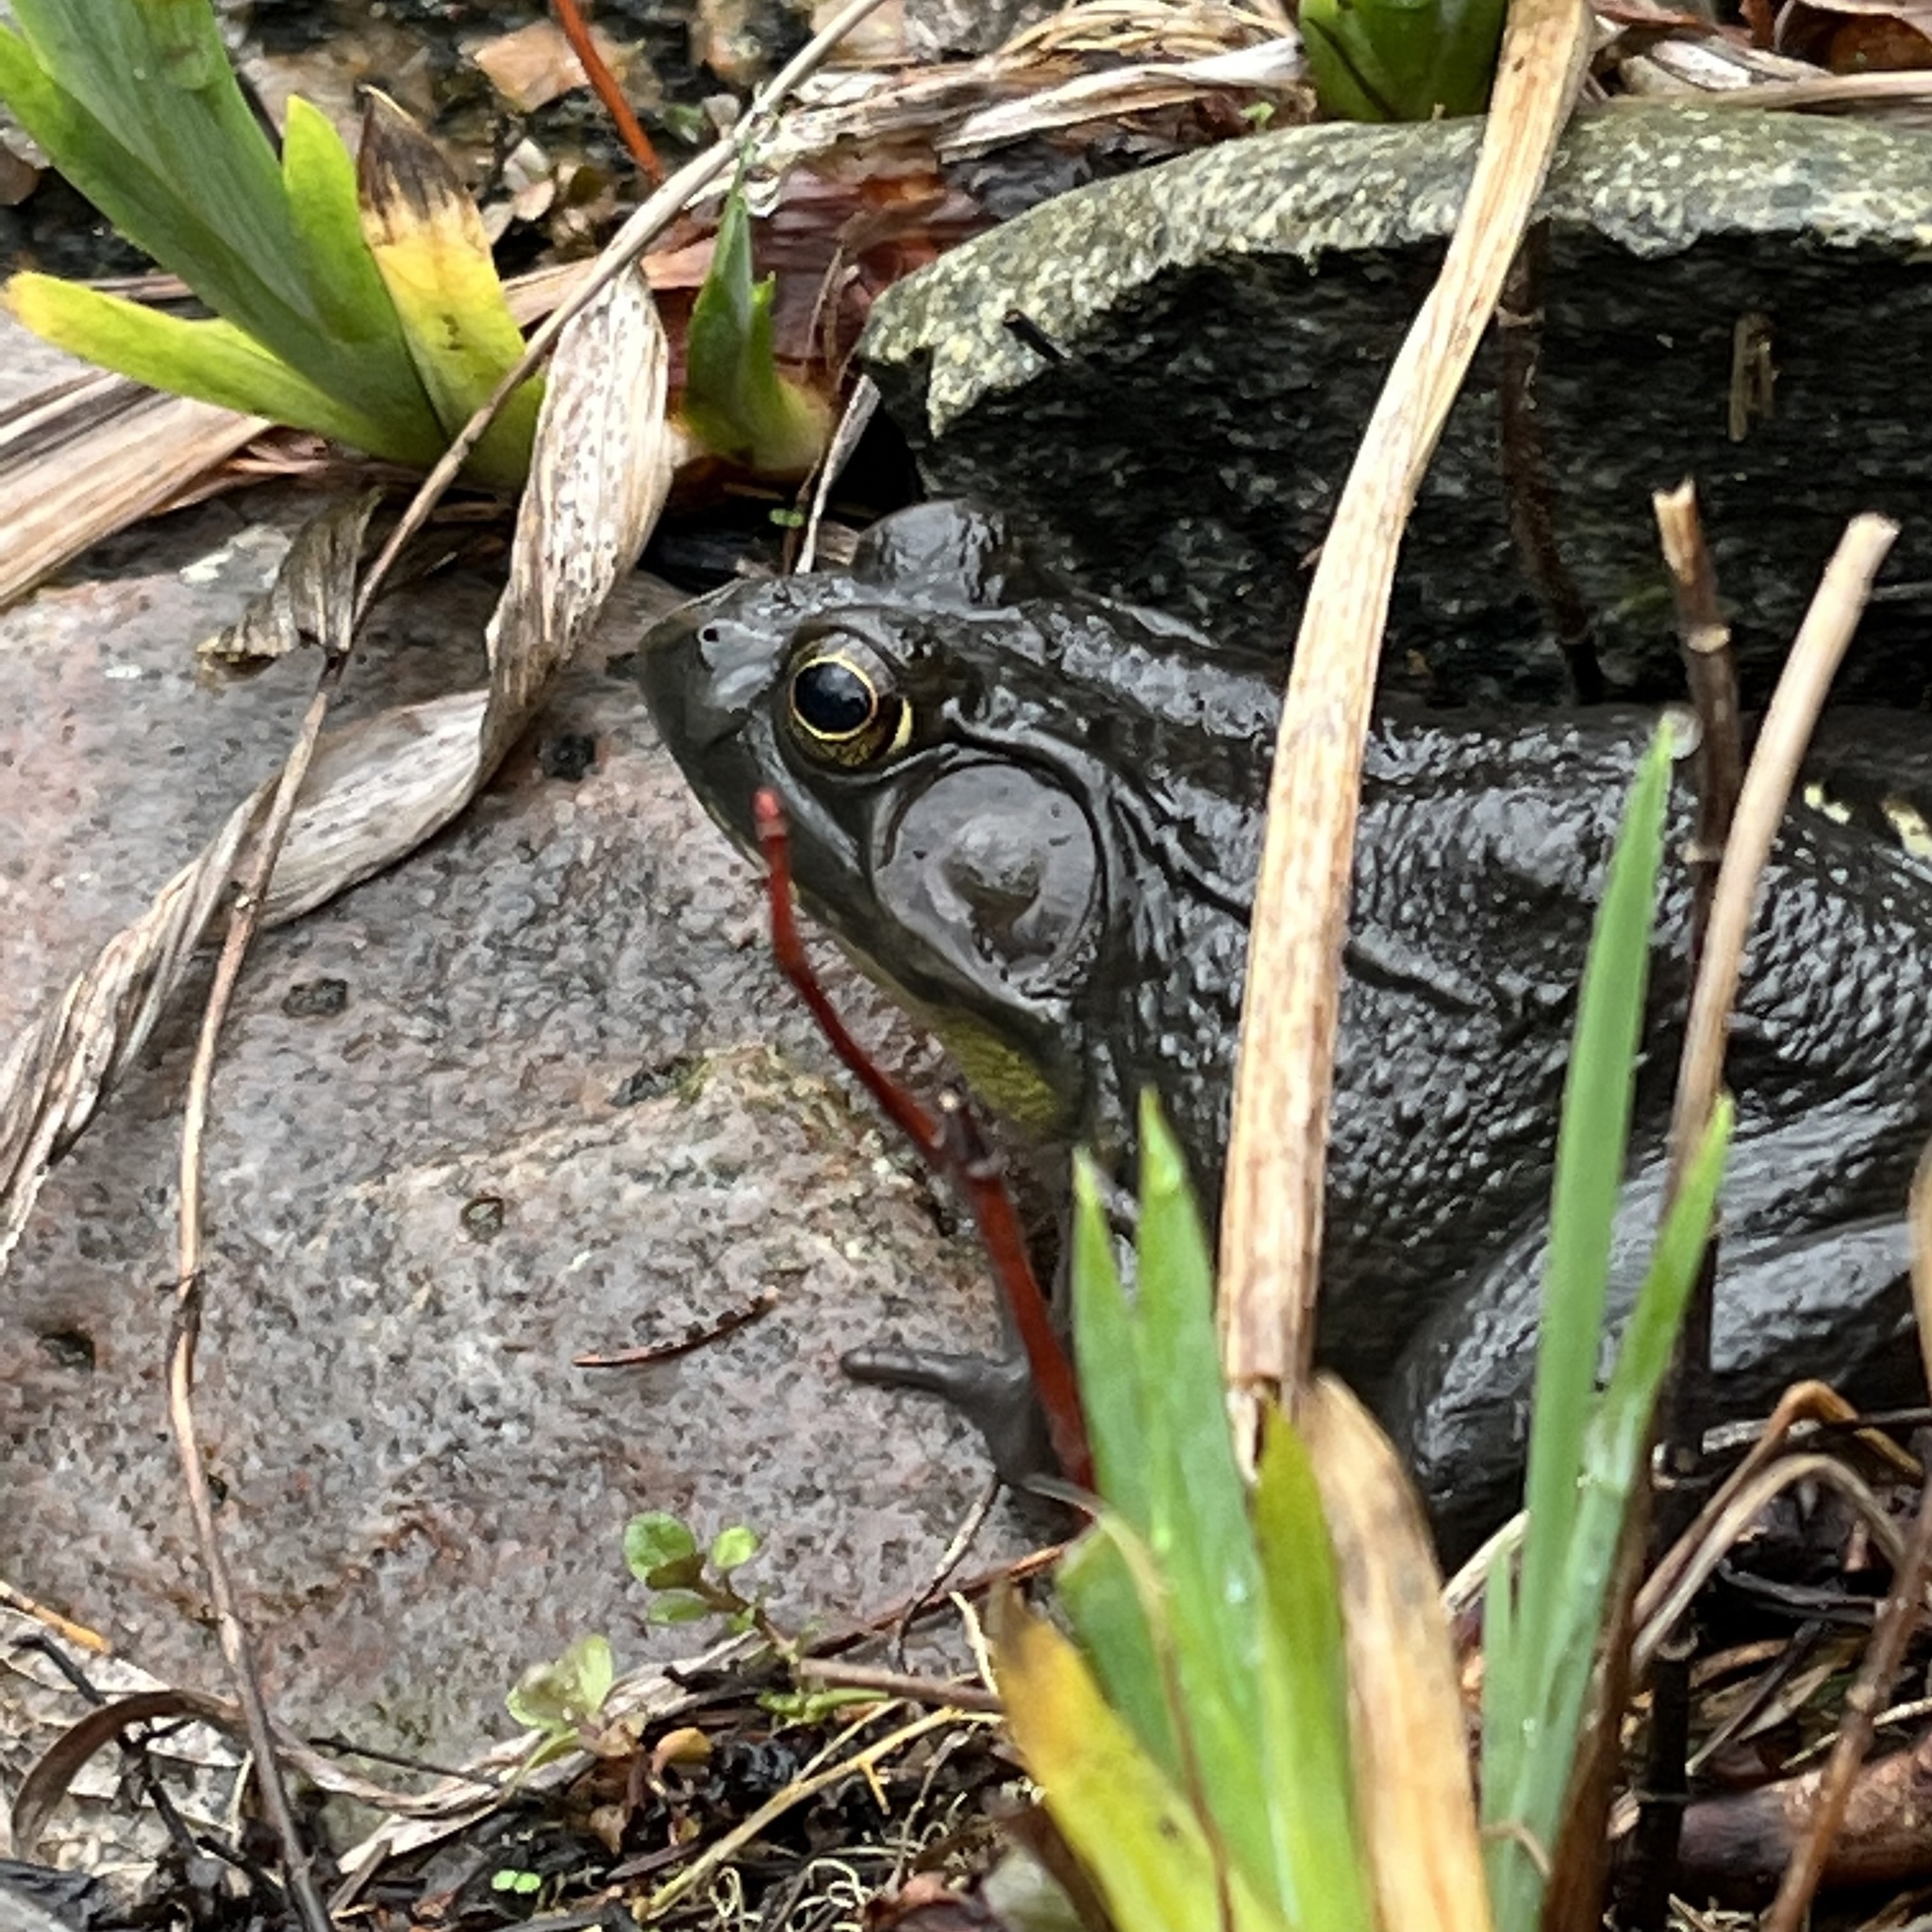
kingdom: Animalia
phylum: Chordata
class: Amphibia
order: Anura
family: Ranidae
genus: Lithobates
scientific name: Lithobates clamitans
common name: Green frog
